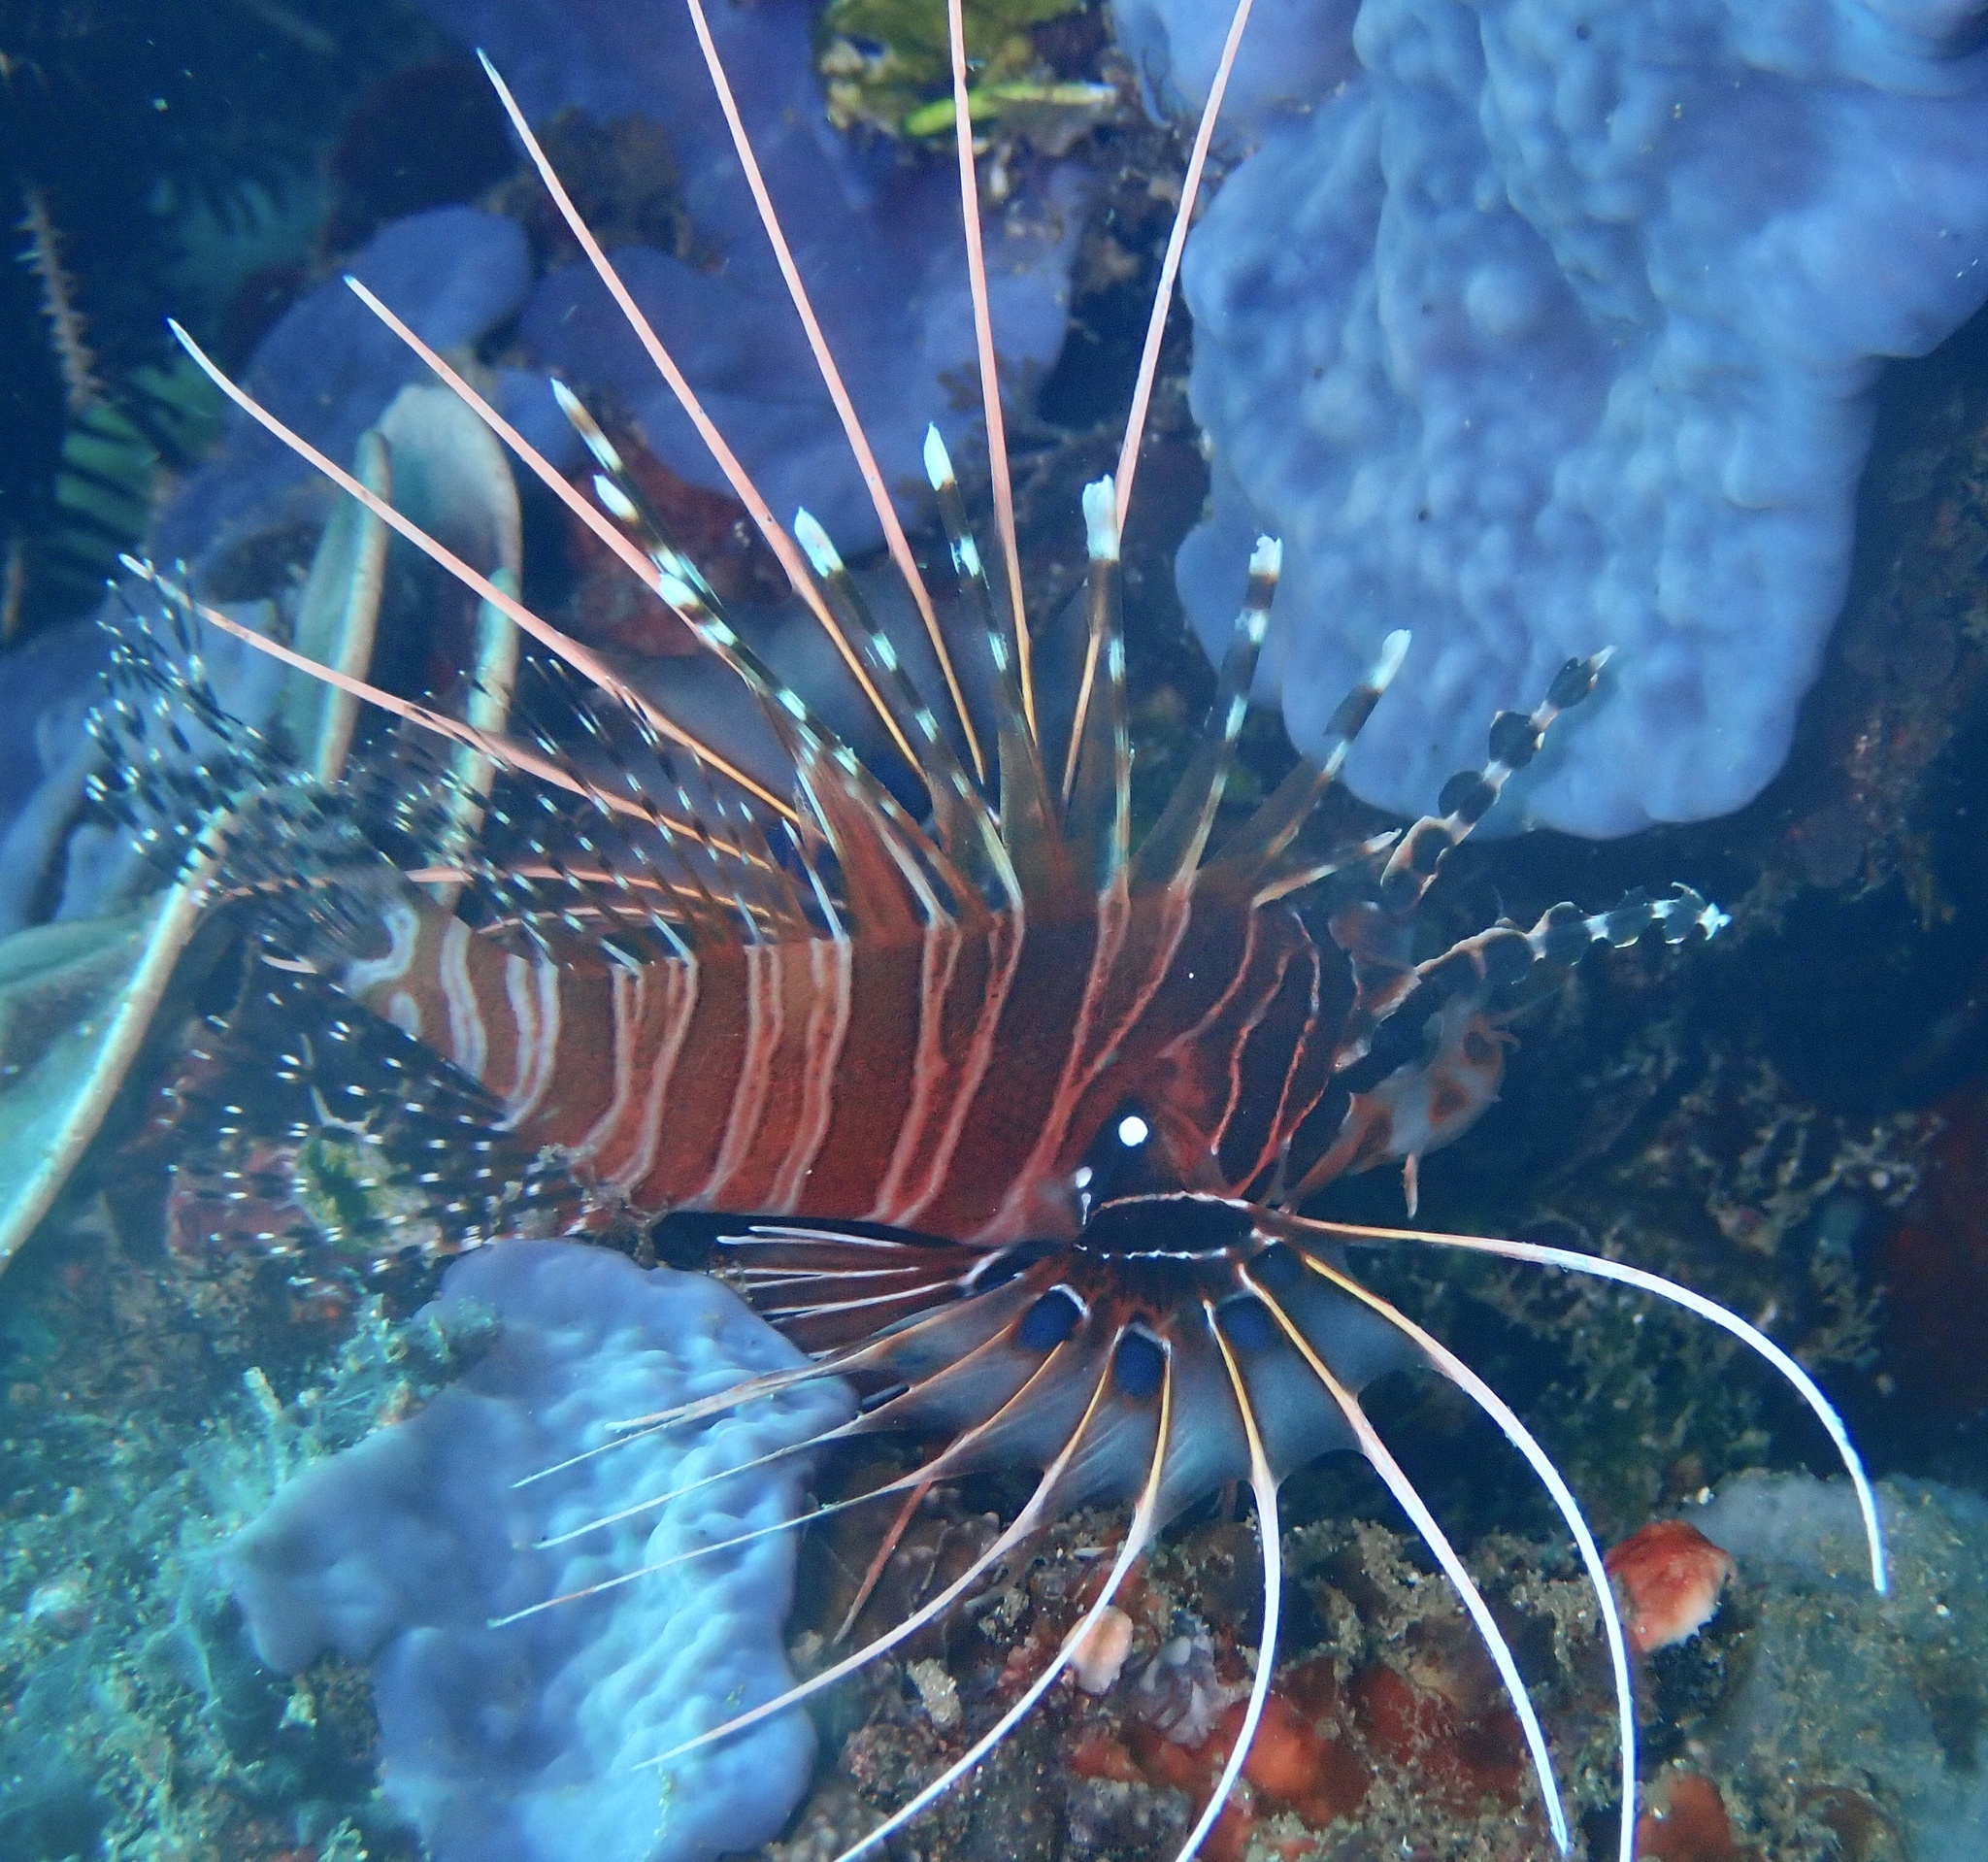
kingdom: Animalia
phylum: Chordata
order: Scorpaeniformes
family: Scorpaenidae
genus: Pterois
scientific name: Pterois antennata
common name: Spotfin lionfish
